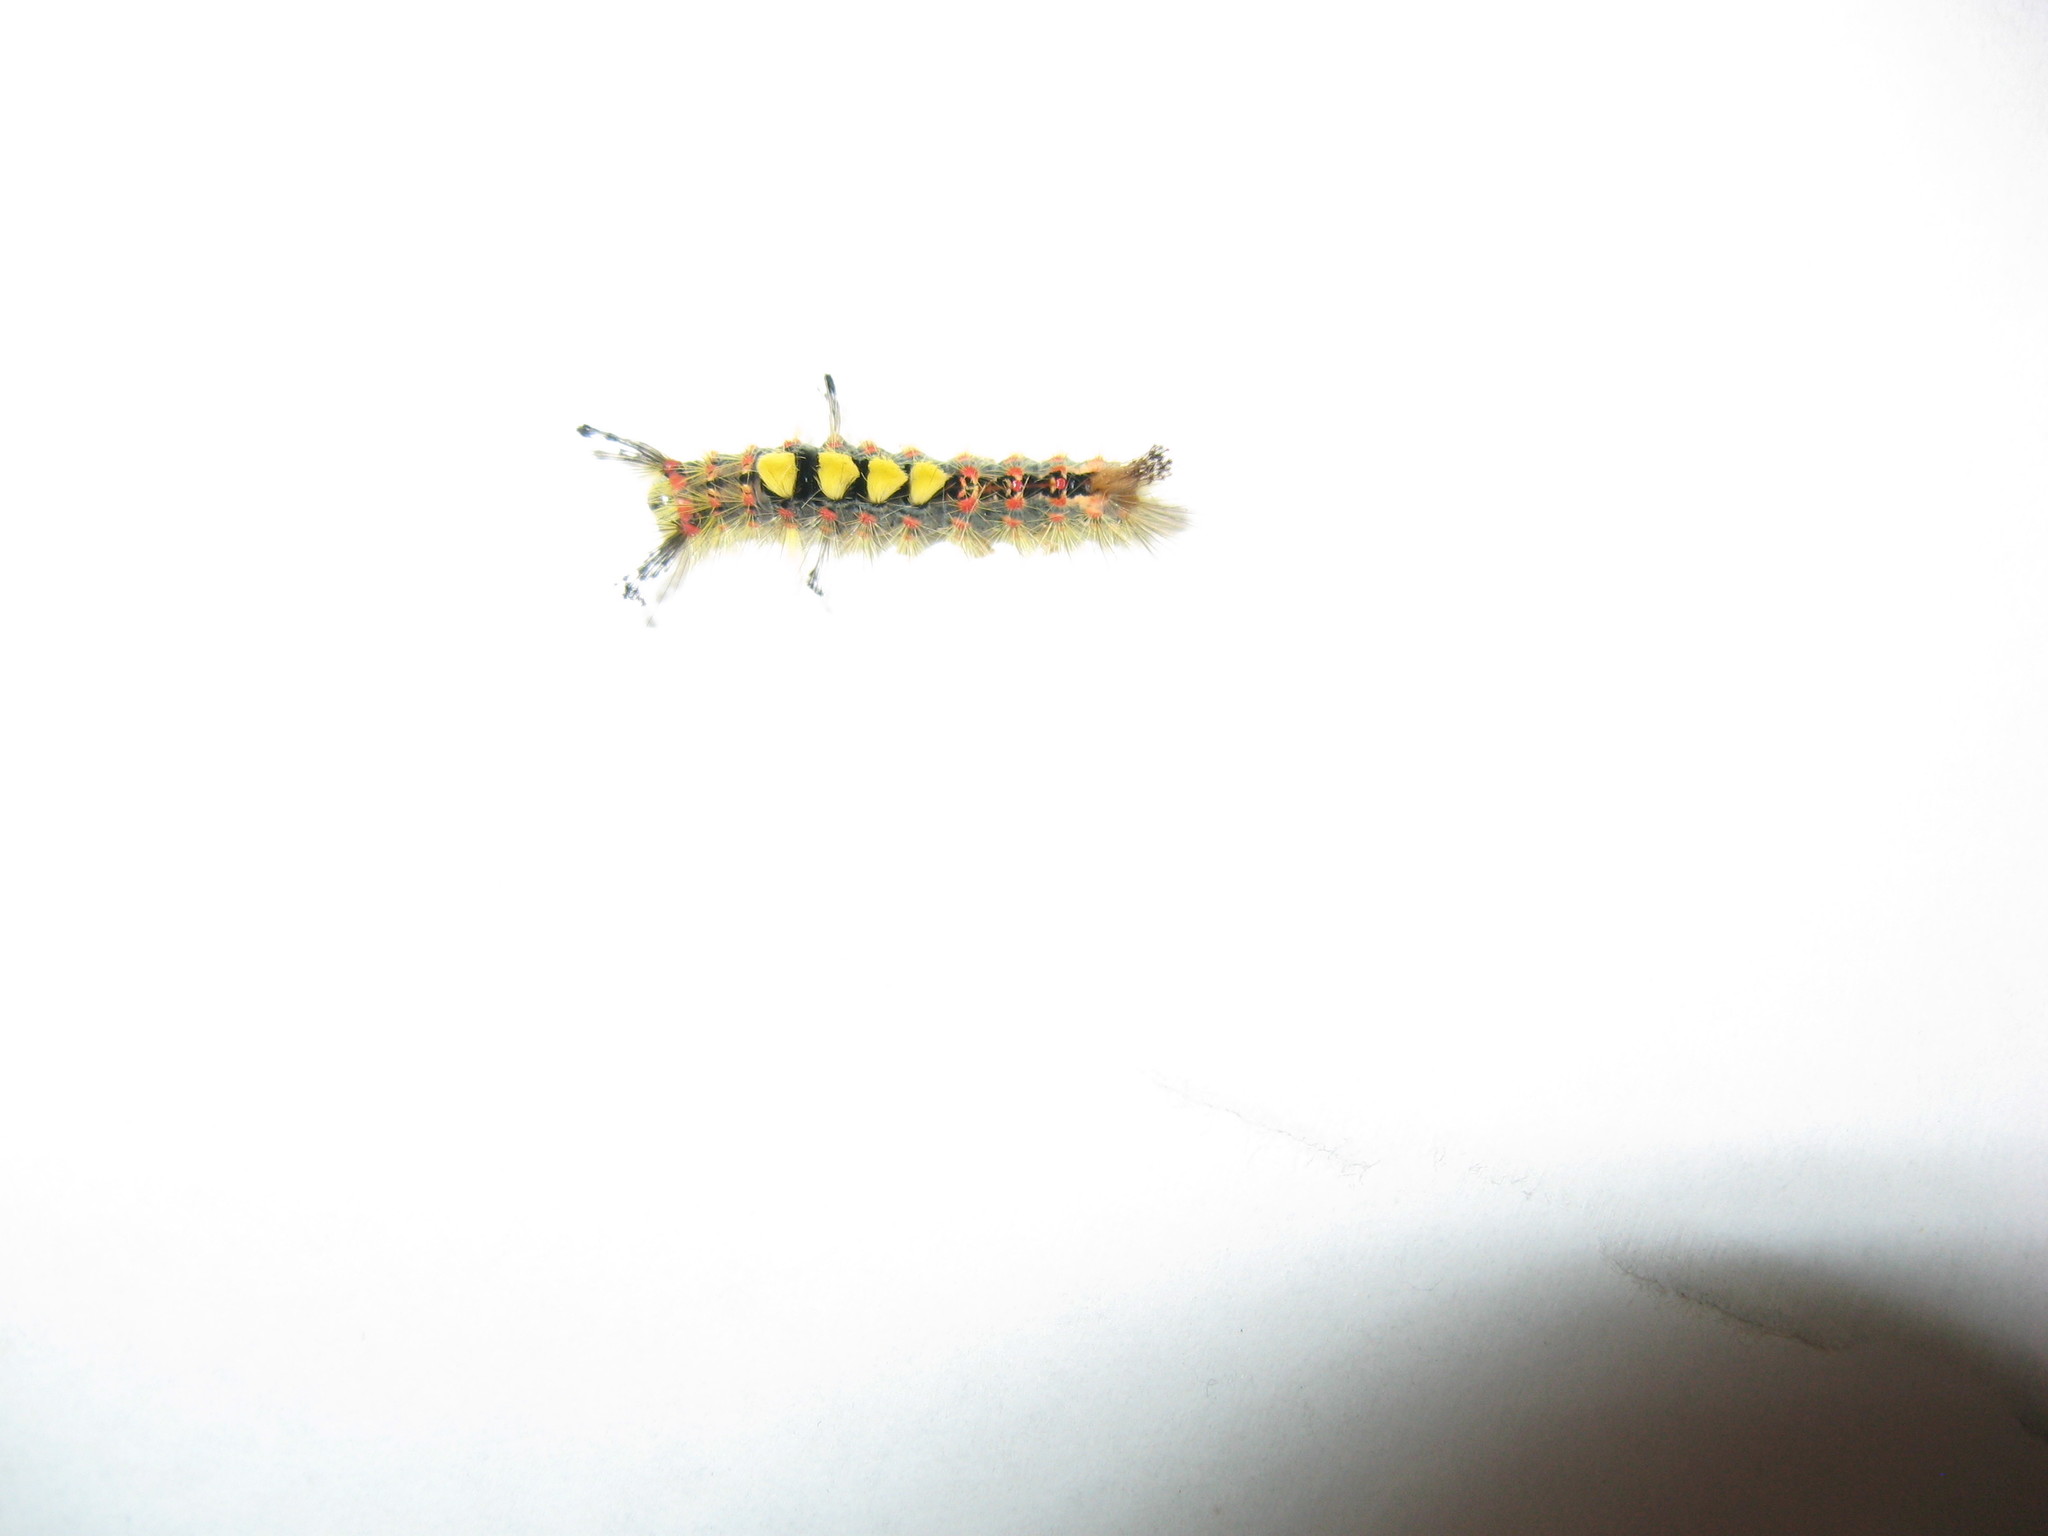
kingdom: Animalia
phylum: Arthropoda
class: Insecta
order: Lepidoptera
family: Erebidae
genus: Orgyia
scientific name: Orgyia antiqua
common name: Vapourer
